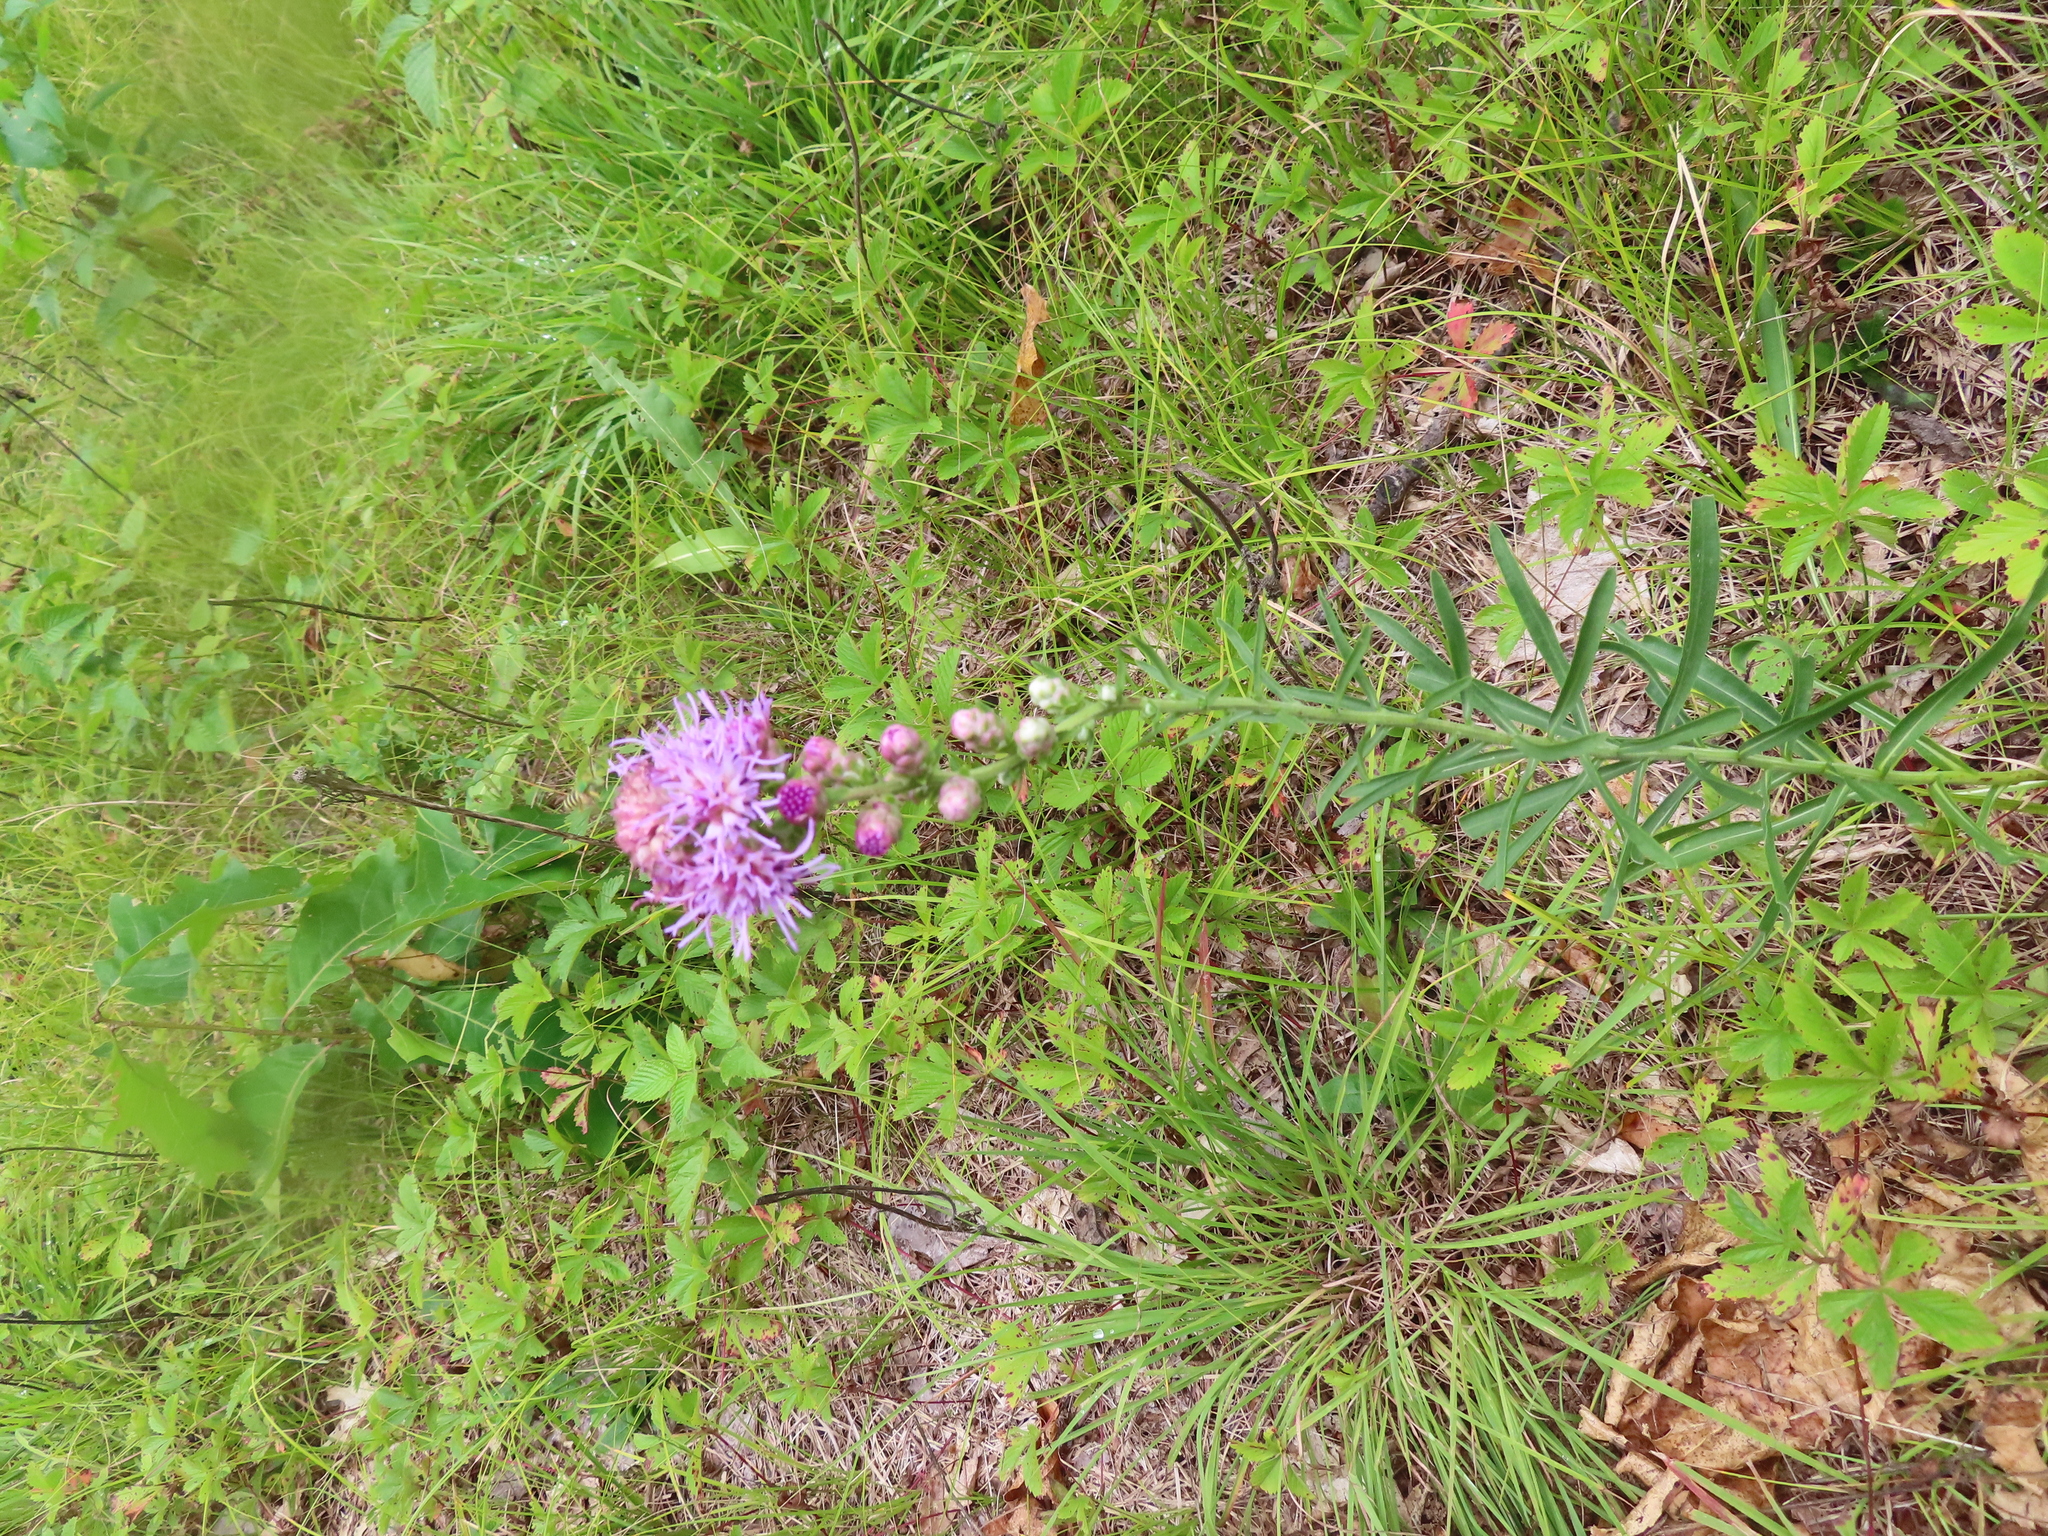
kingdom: Plantae
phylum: Tracheophyta
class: Magnoliopsida
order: Asterales
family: Asteraceae
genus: Liatris
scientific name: Liatris aspera
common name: Lacerate blazing-star
